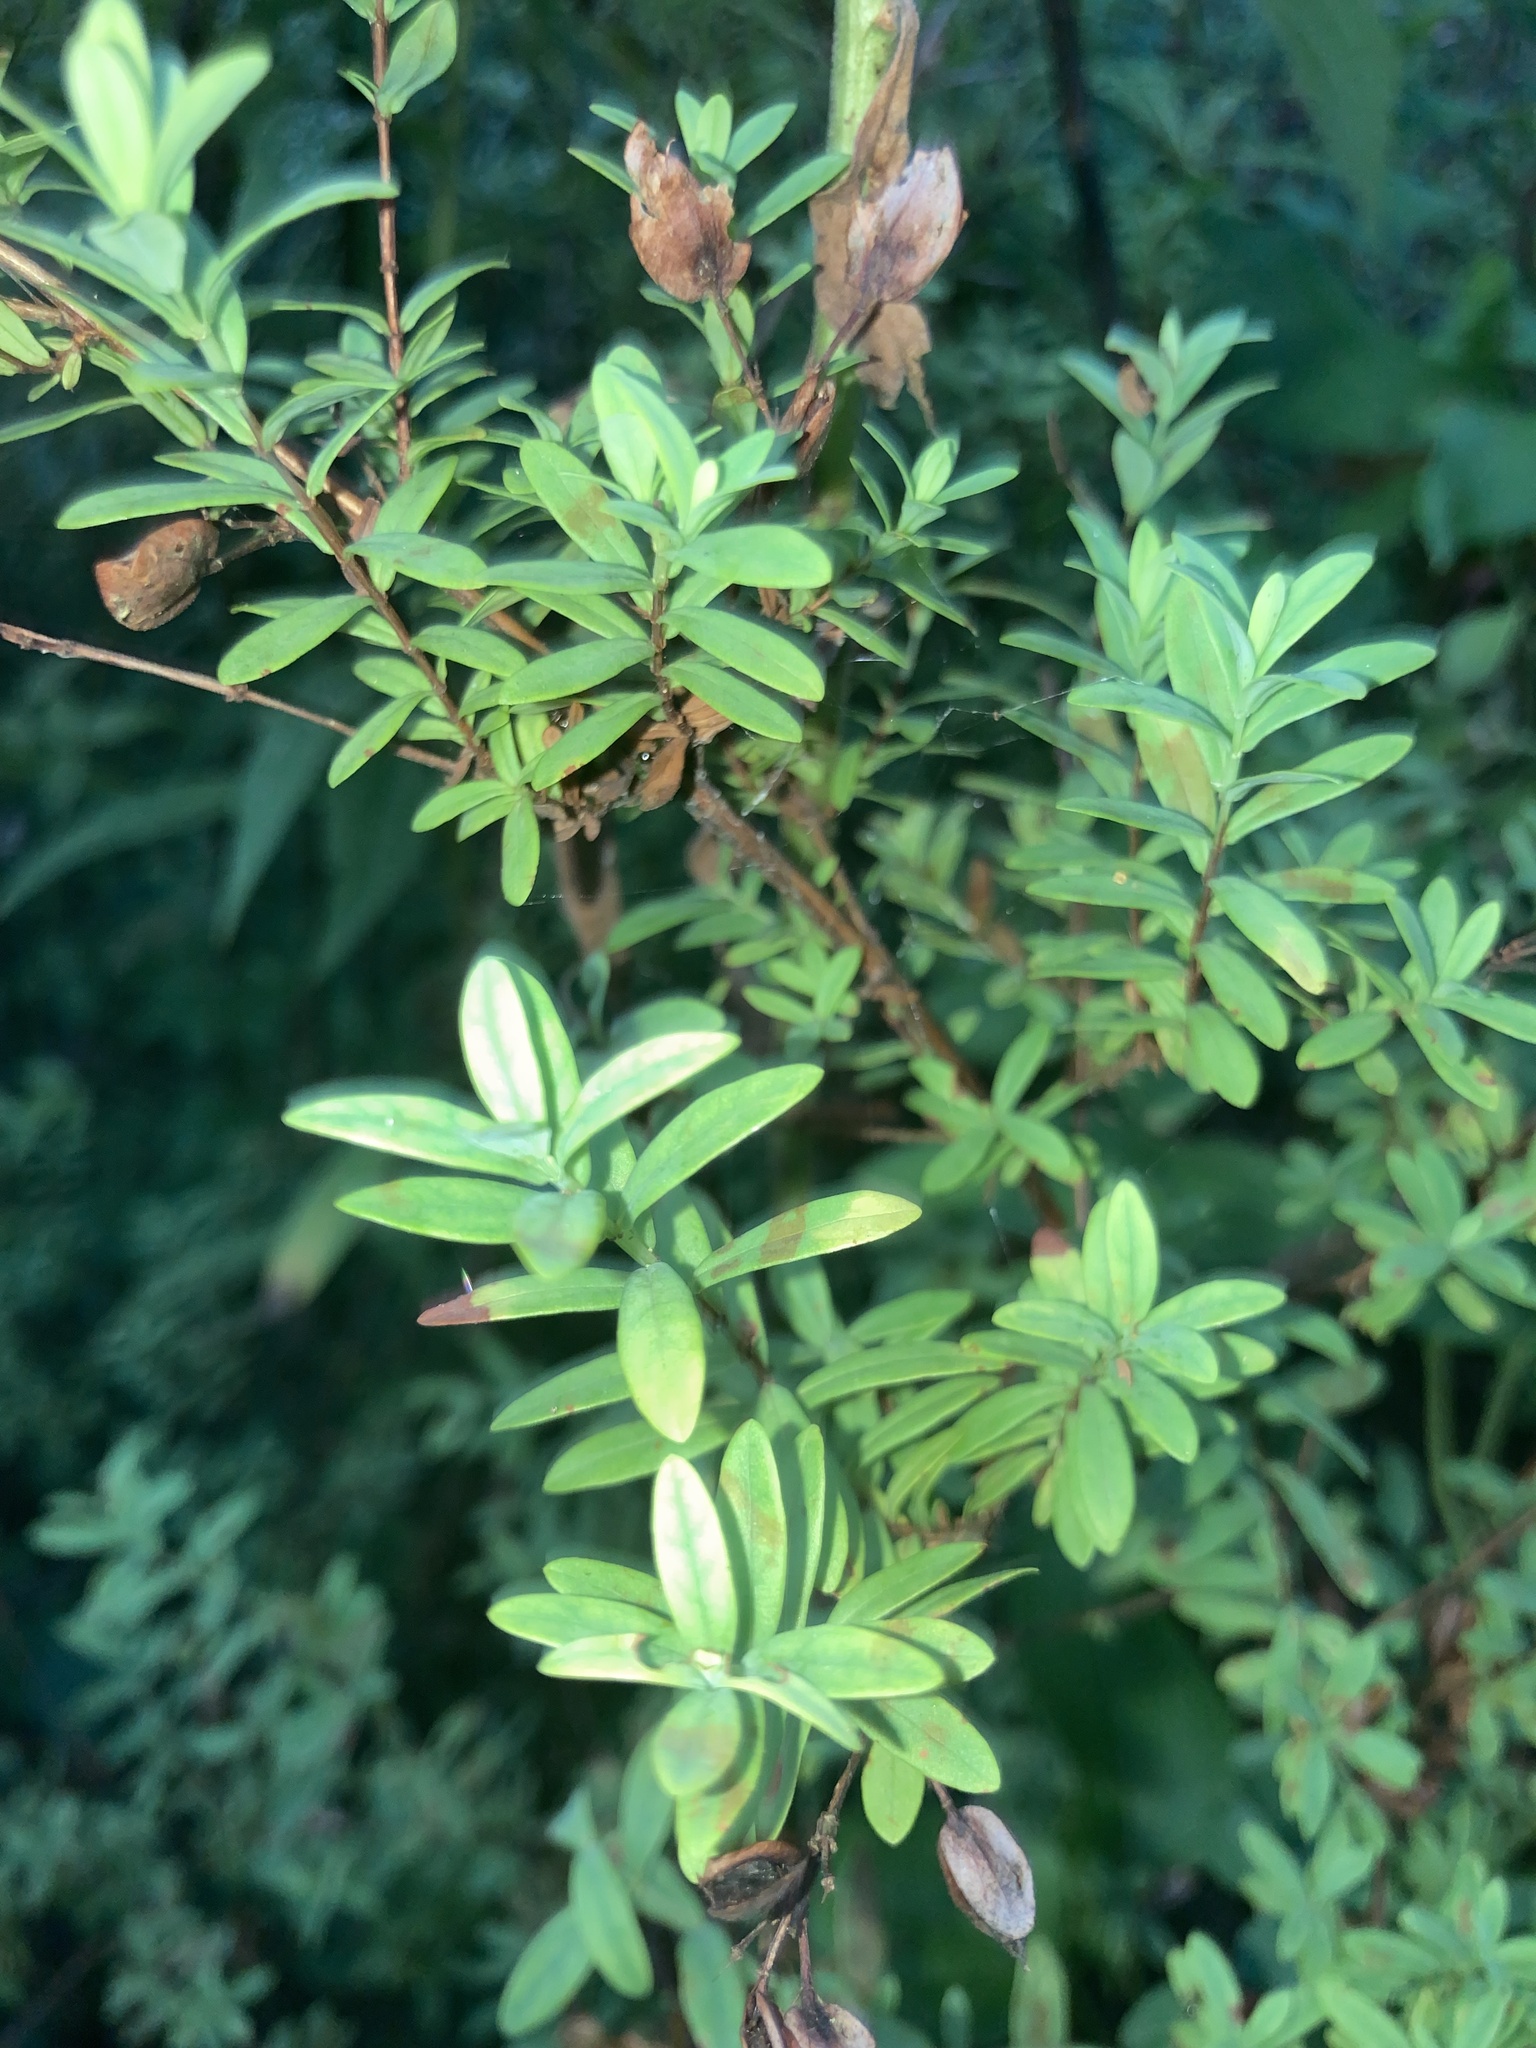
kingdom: Plantae
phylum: Tracheophyta
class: Magnoliopsida
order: Malpighiales
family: Hypericaceae
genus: Hypericum
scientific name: Hypericum hypericoides
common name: St. andrew's cross
